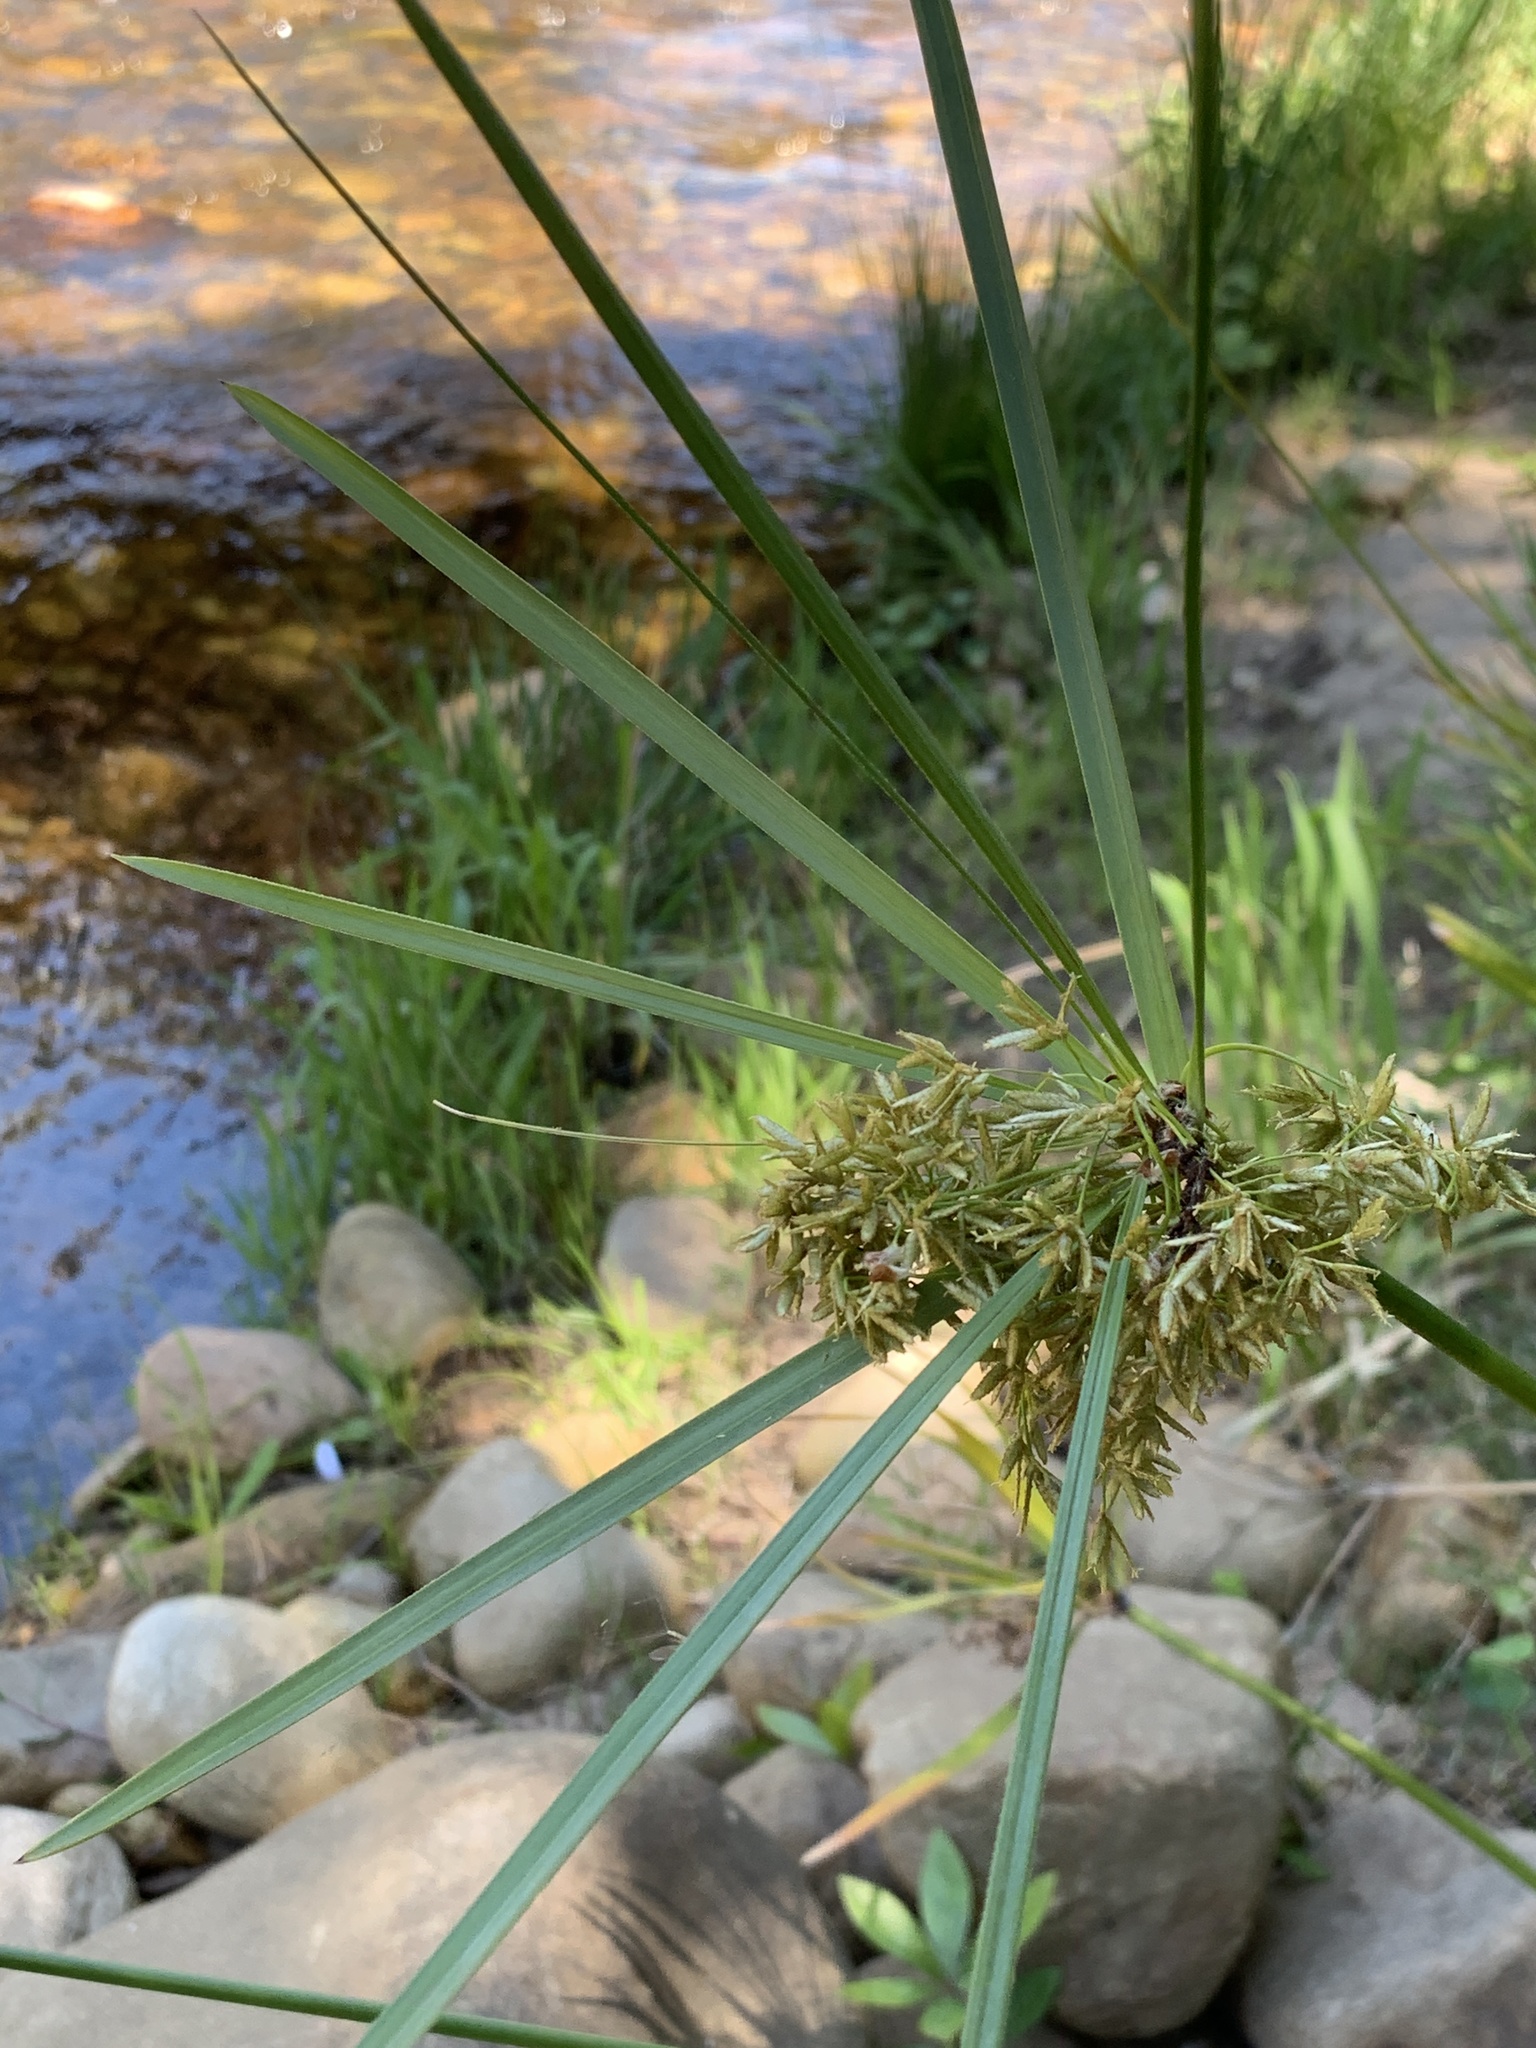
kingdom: Plantae
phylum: Tracheophyta
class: Liliopsida
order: Poales
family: Cyperaceae
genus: Cyperus
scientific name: Cyperus textilis
